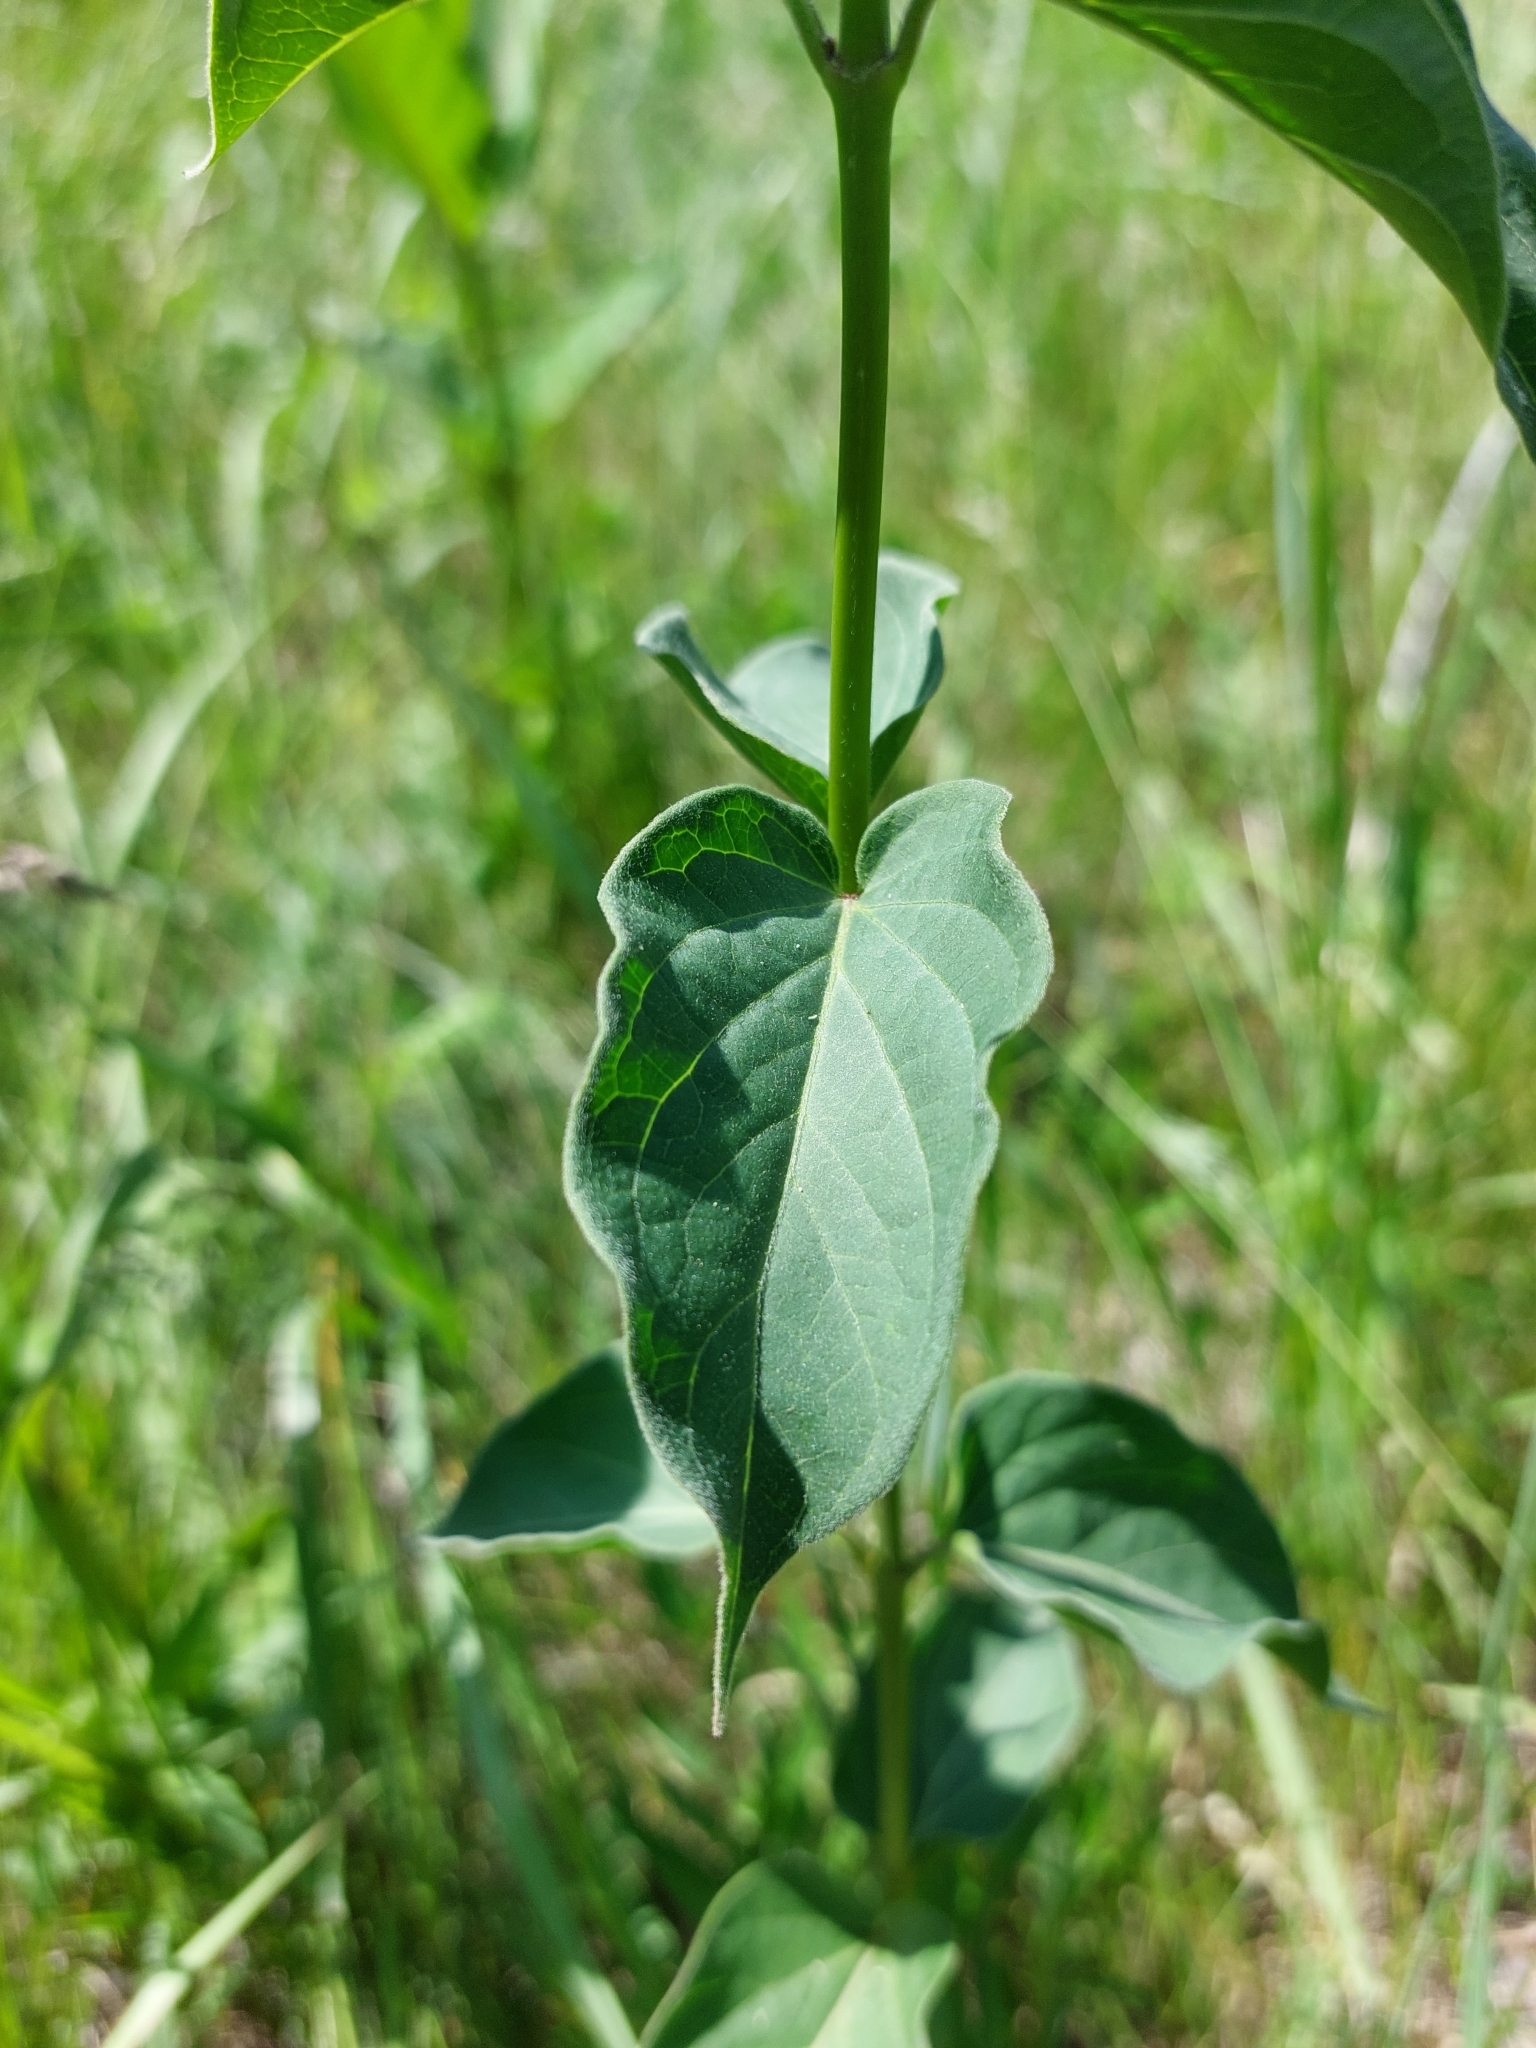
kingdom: Plantae
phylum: Tracheophyta
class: Magnoliopsida
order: Gentianales
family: Apocynaceae
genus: Vincetoxicum
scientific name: Vincetoxicum hirundinaria
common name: White swallowwort
